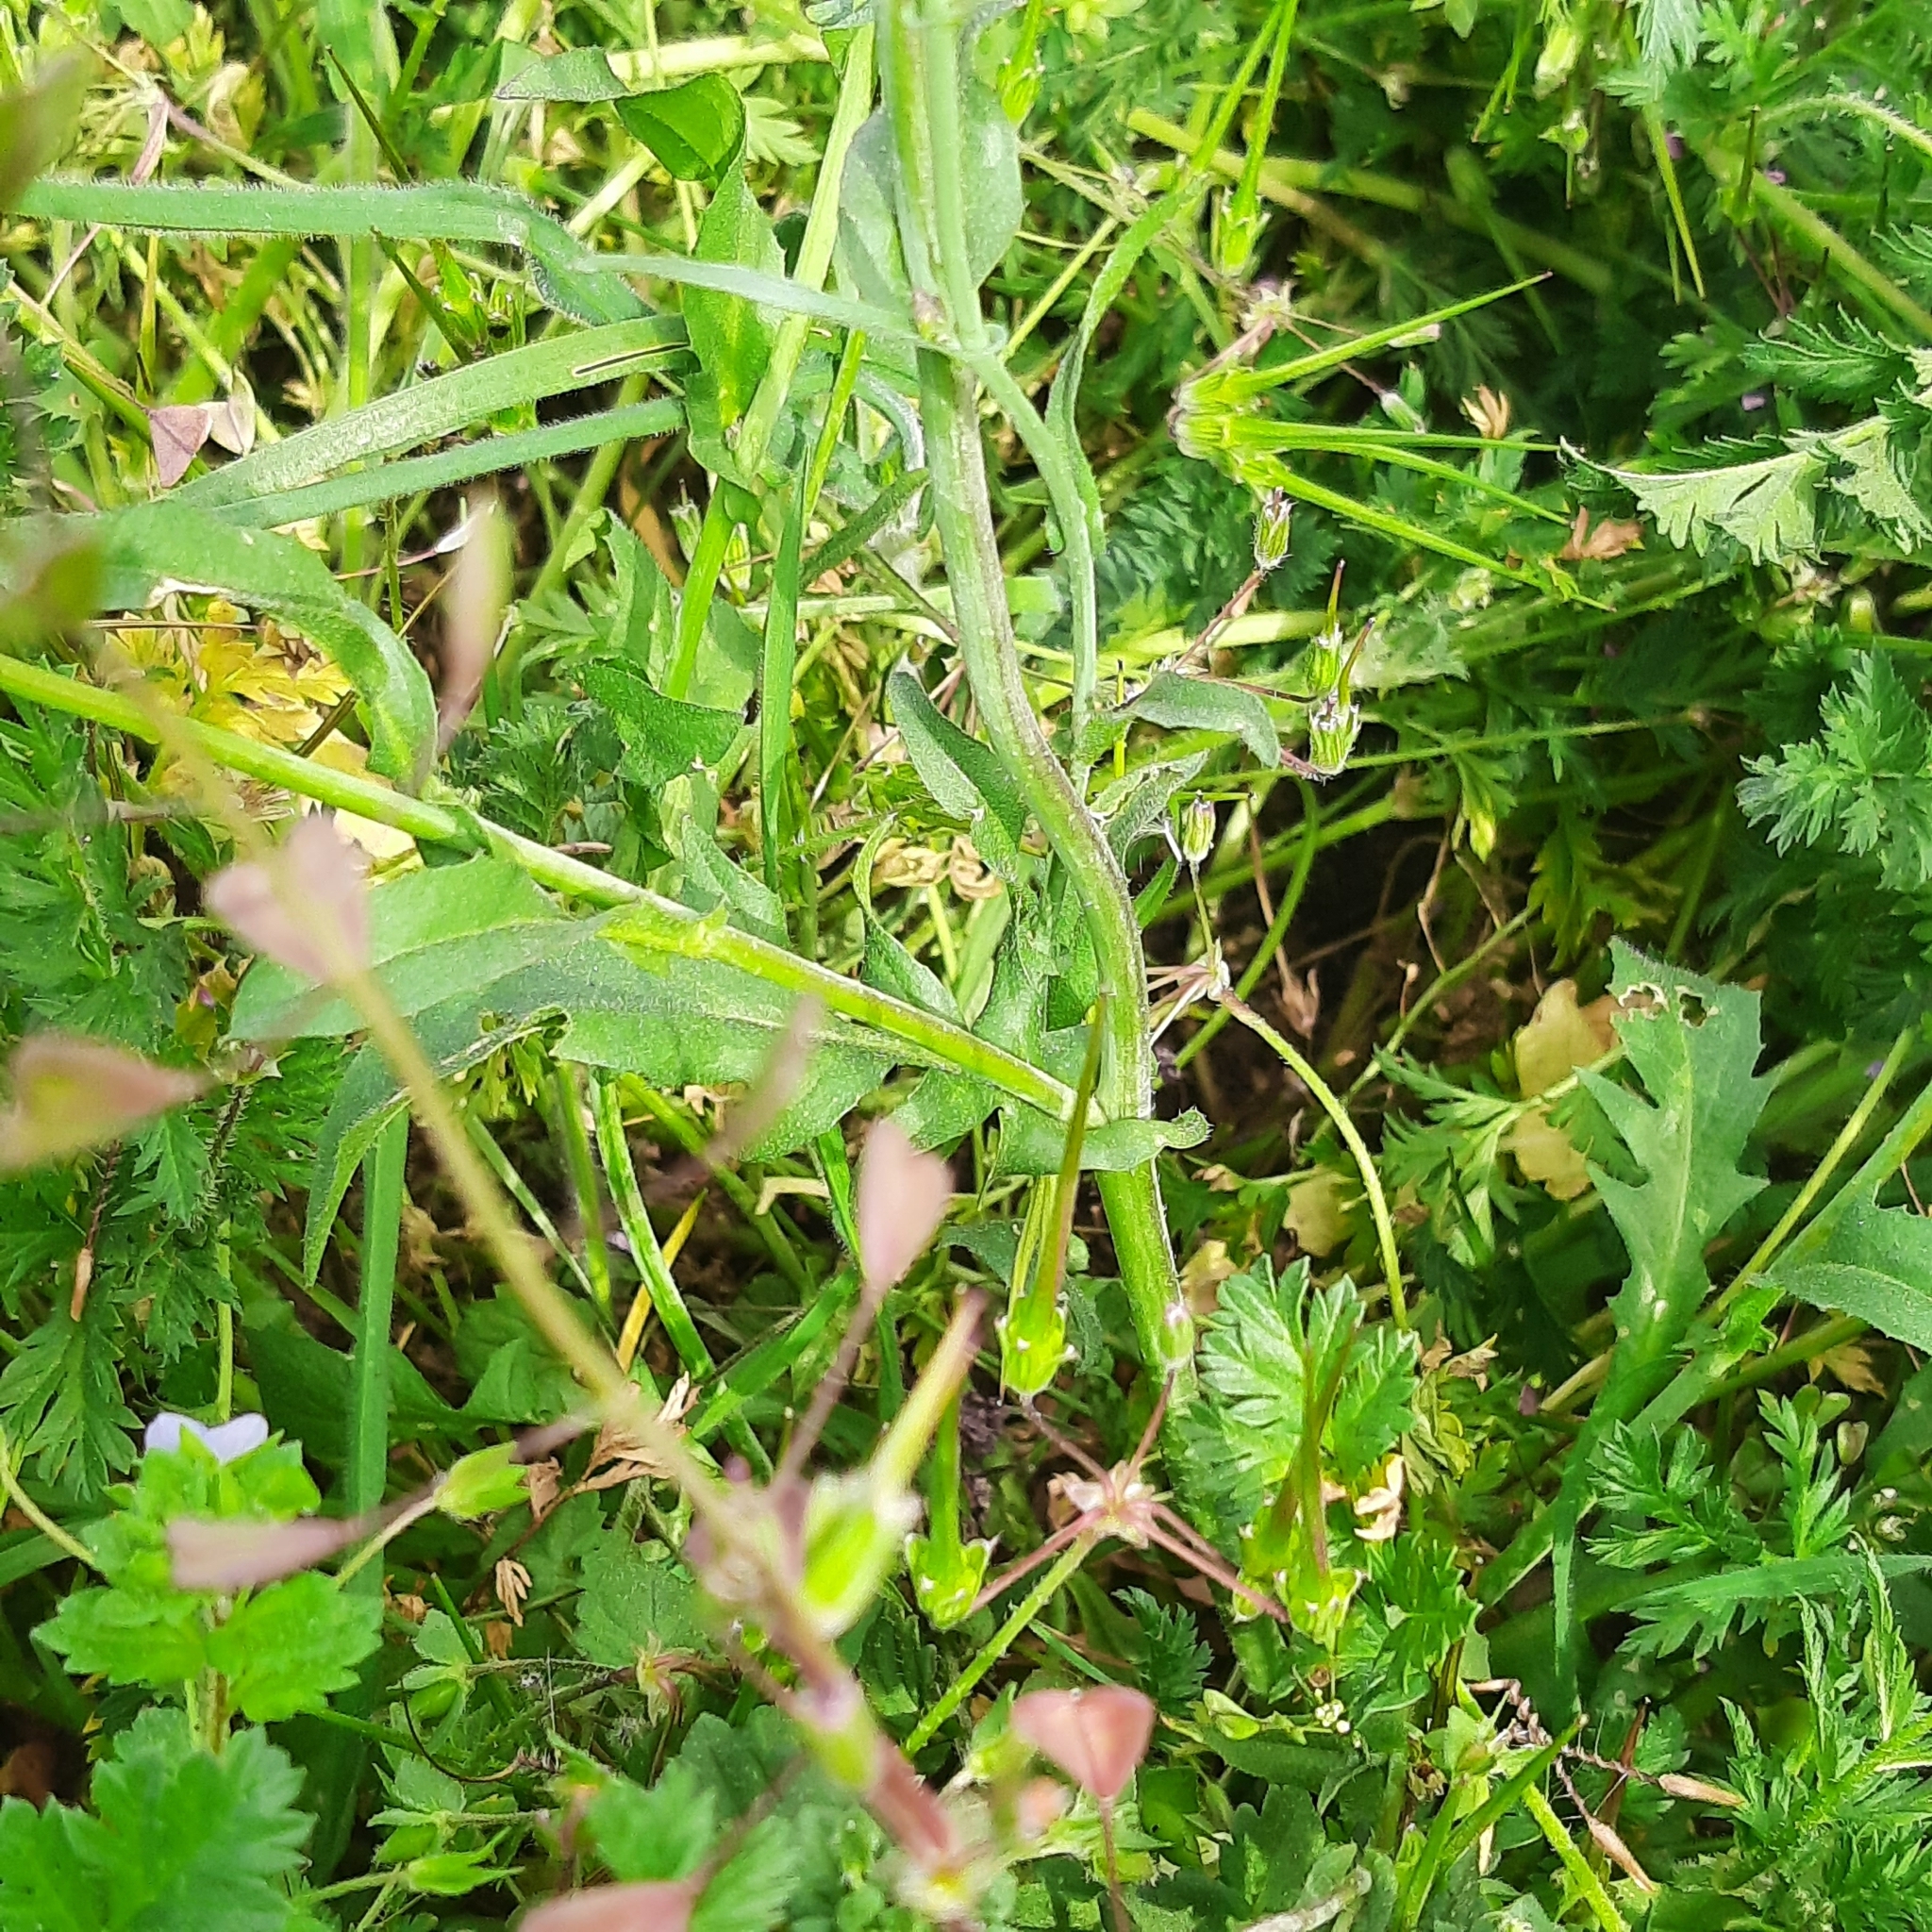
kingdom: Plantae
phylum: Tracheophyta
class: Magnoliopsida
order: Brassicales
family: Brassicaceae
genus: Capsella
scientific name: Capsella bursa-pastoris
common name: Shepherd's purse
